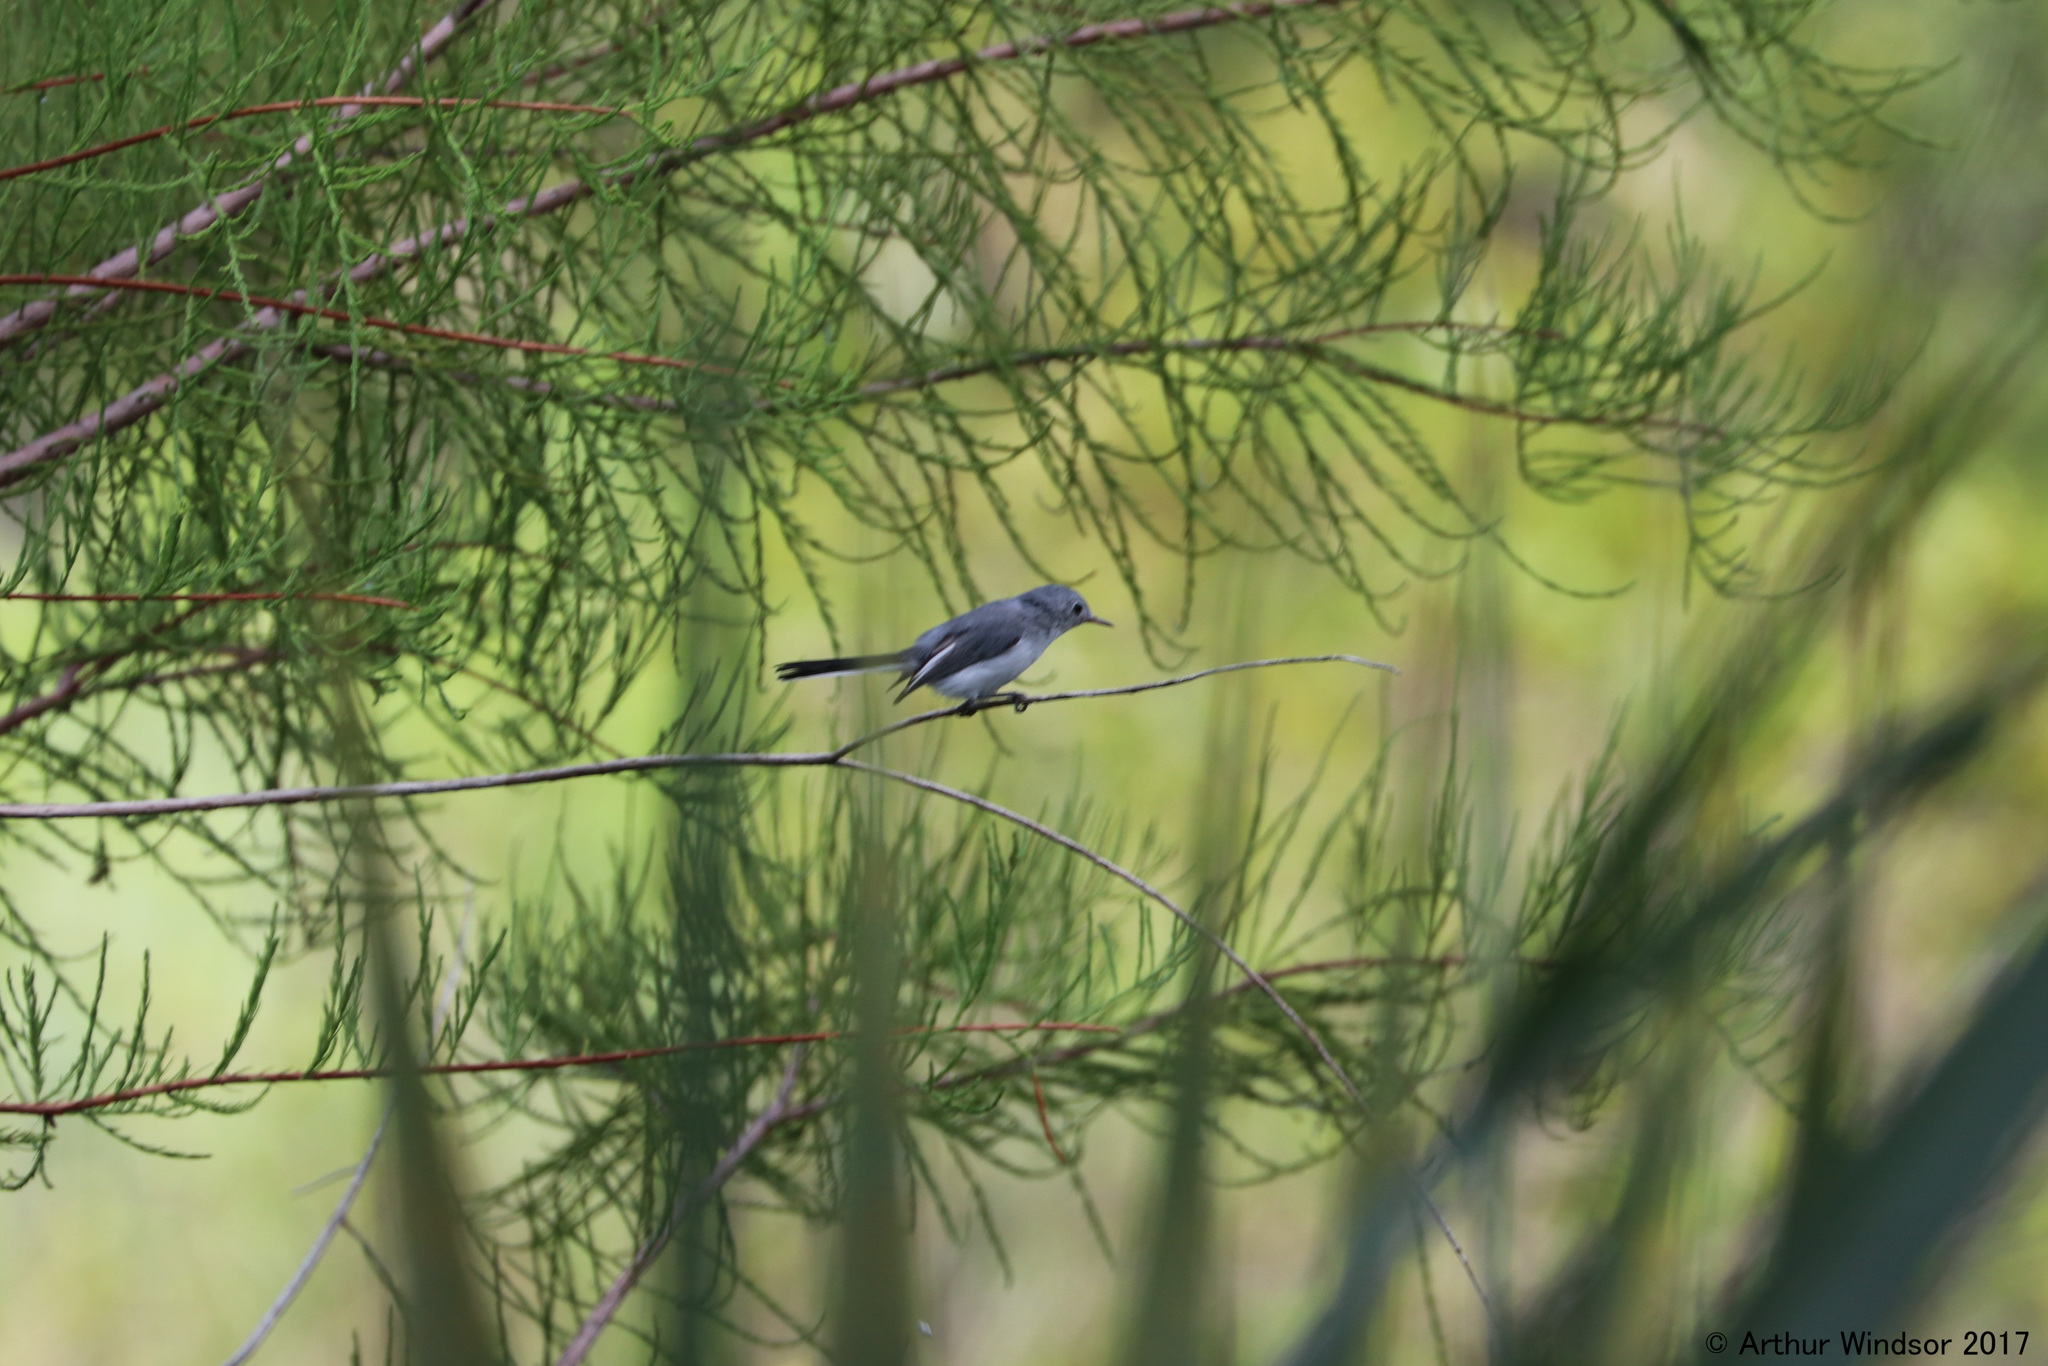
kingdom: Animalia
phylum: Chordata
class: Aves
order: Passeriformes
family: Polioptilidae
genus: Polioptila
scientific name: Polioptila caerulea
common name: Blue-gray gnatcatcher
